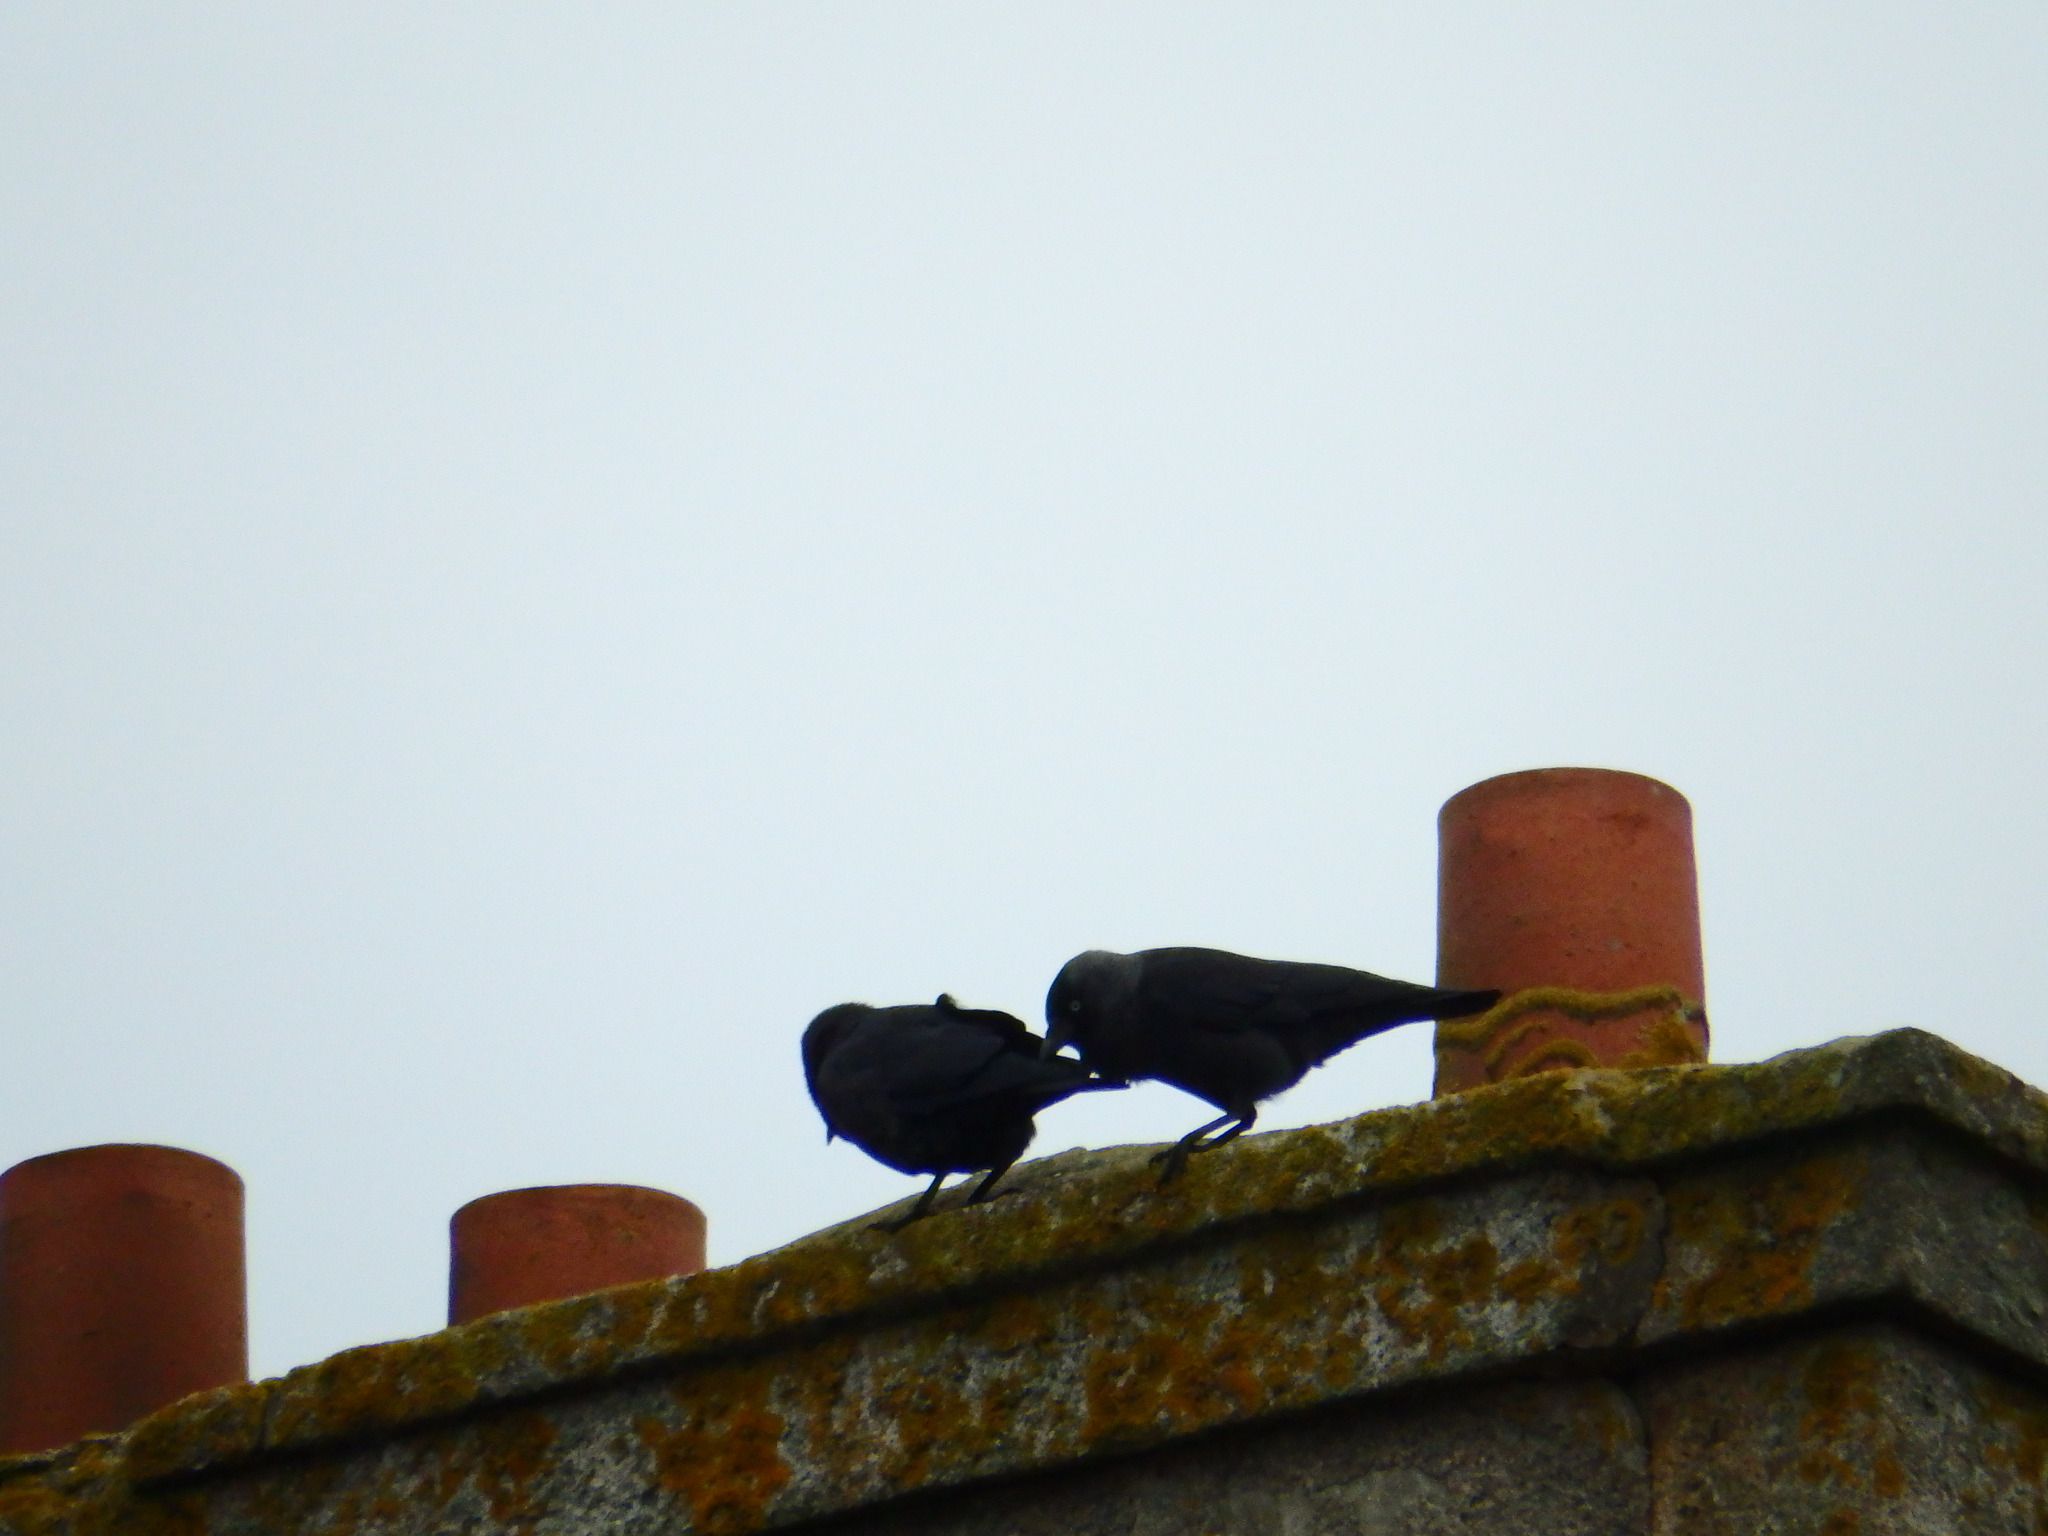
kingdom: Animalia
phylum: Chordata
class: Aves
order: Passeriformes
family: Corvidae
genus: Coloeus
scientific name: Coloeus monedula
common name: Western jackdaw
